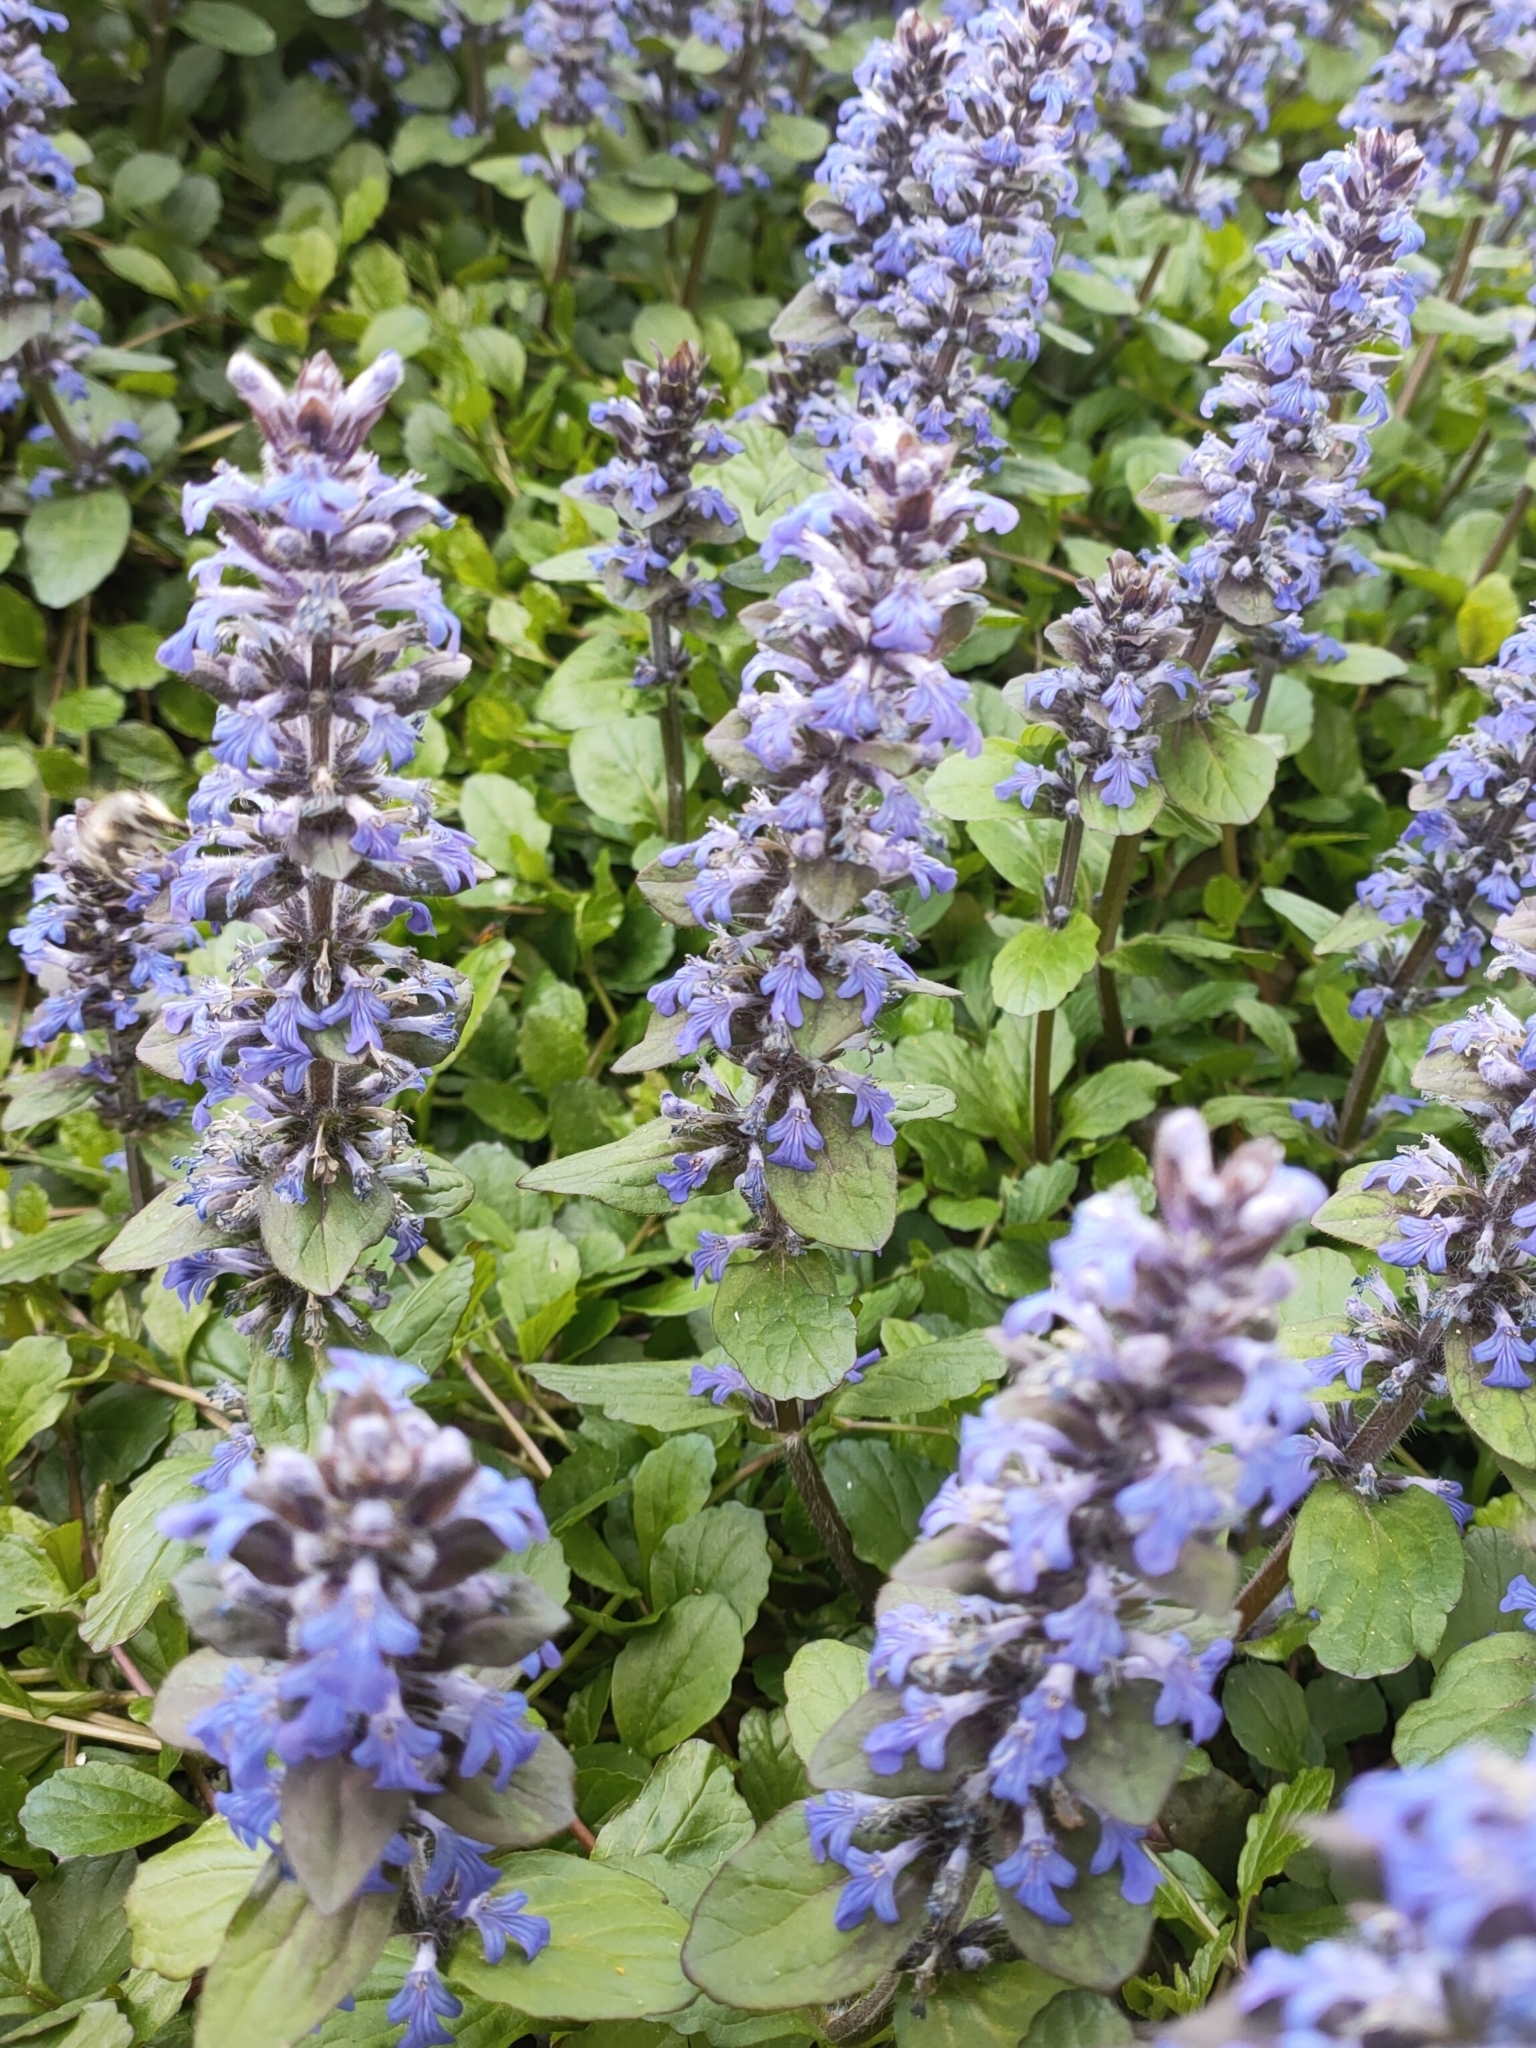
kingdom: Plantae
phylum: Tracheophyta
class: Magnoliopsida
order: Lamiales
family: Lamiaceae
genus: Ajuga
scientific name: Ajuga reptans
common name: Bugle
